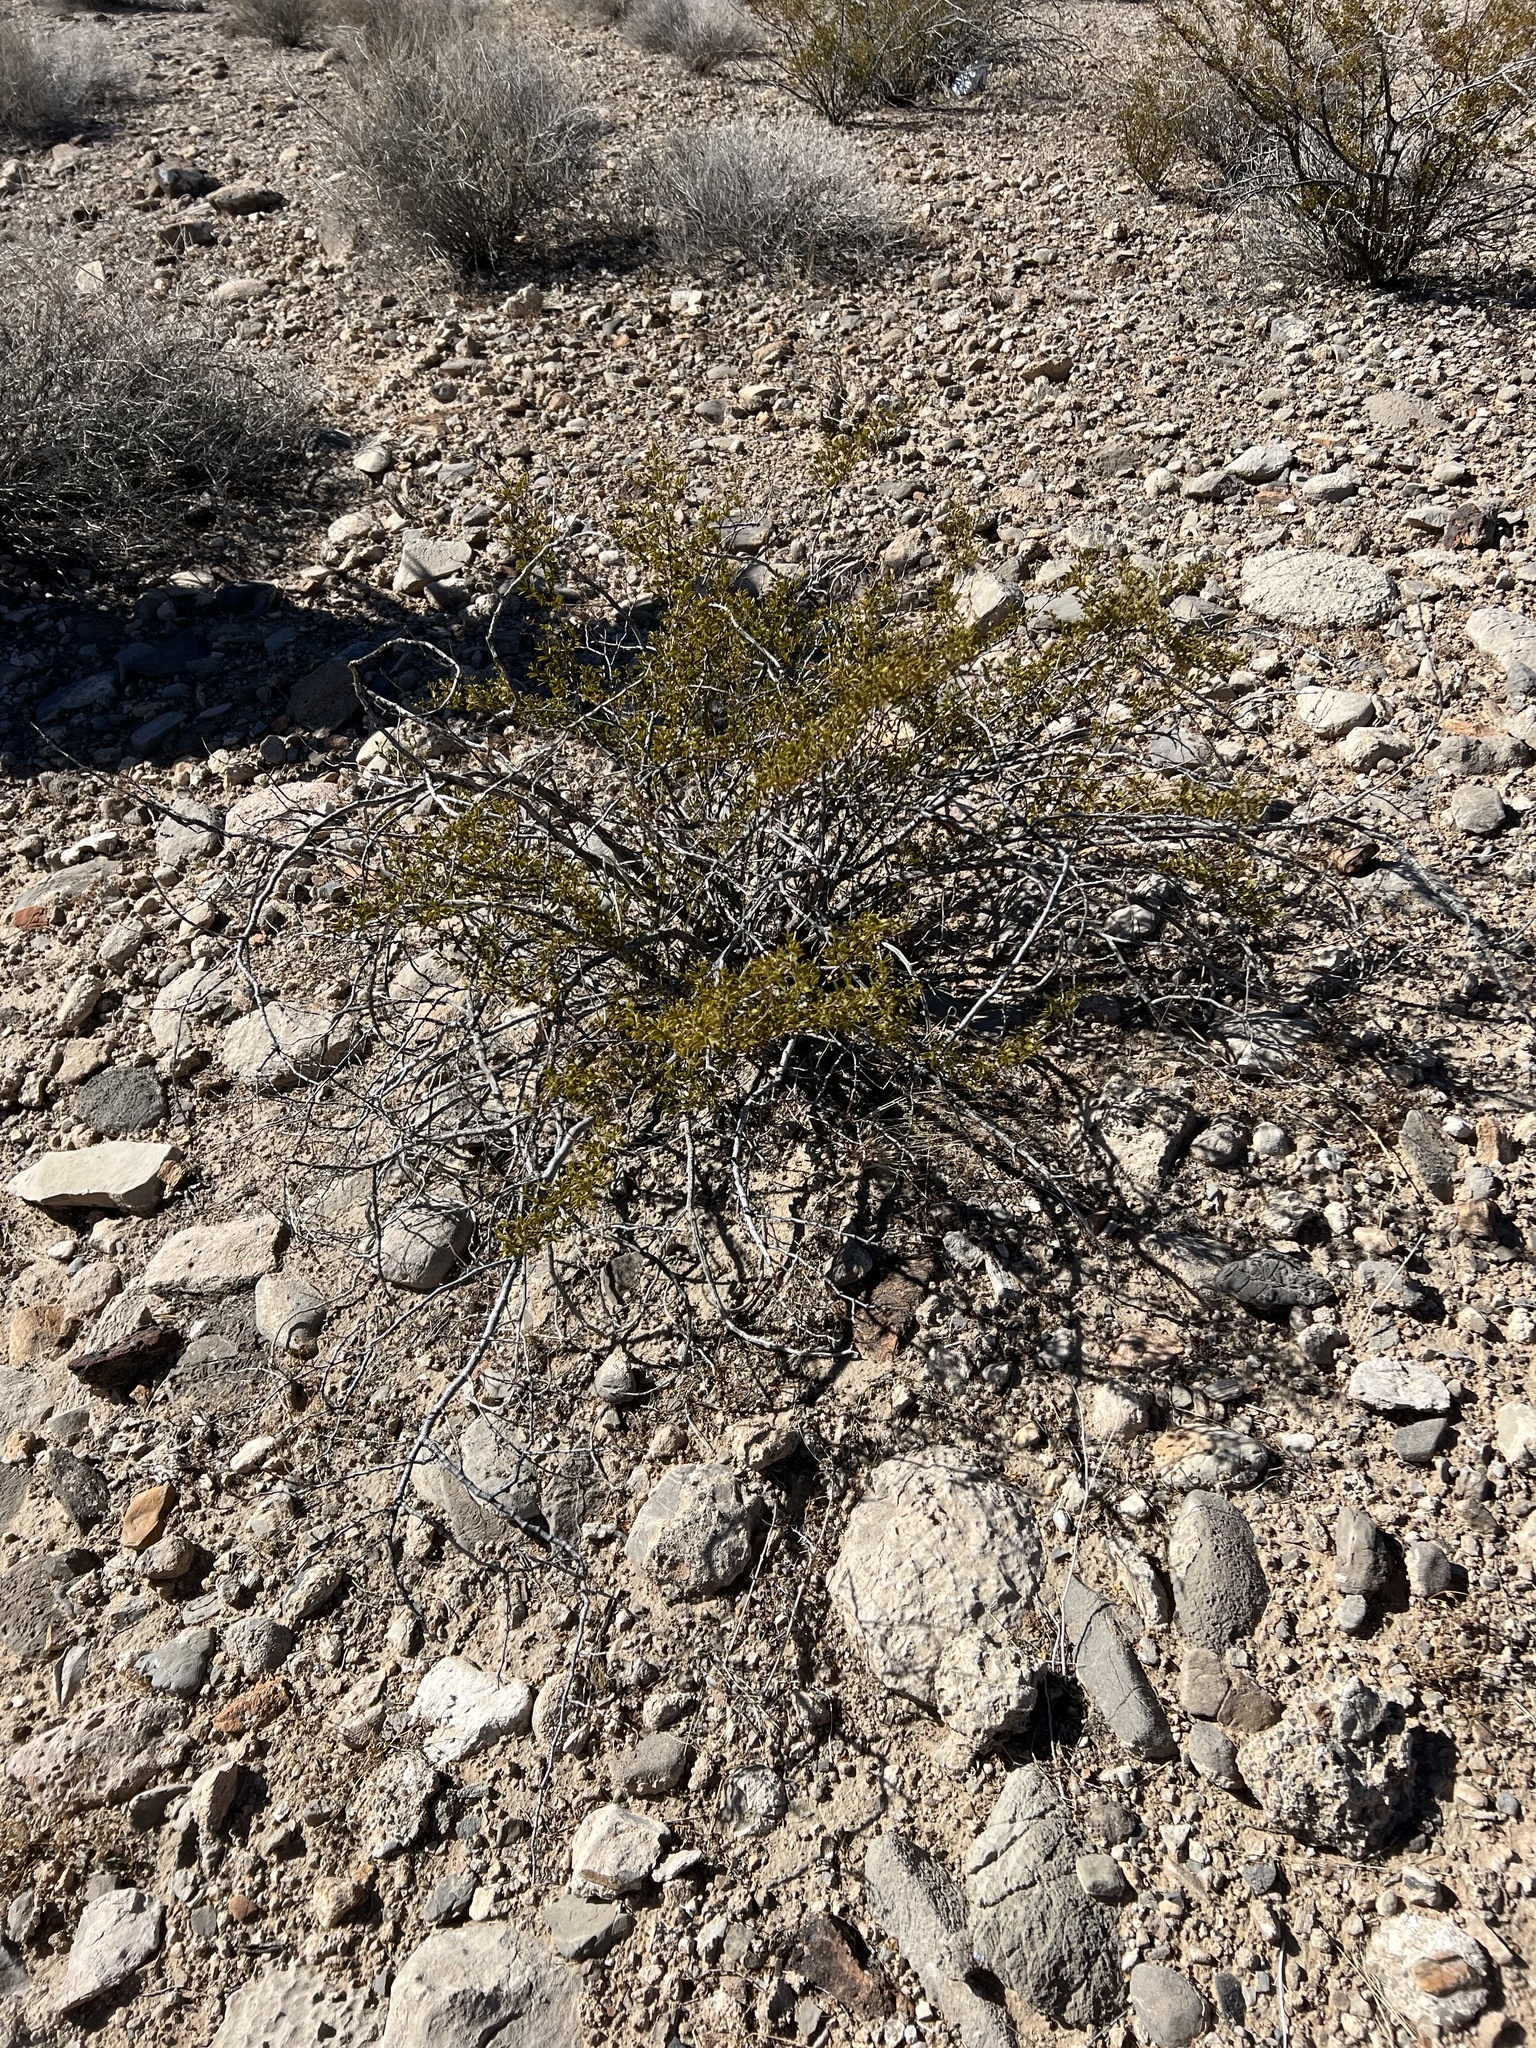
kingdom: Plantae
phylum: Tracheophyta
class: Magnoliopsida
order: Zygophyllales
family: Zygophyllaceae
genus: Larrea
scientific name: Larrea tridentata
